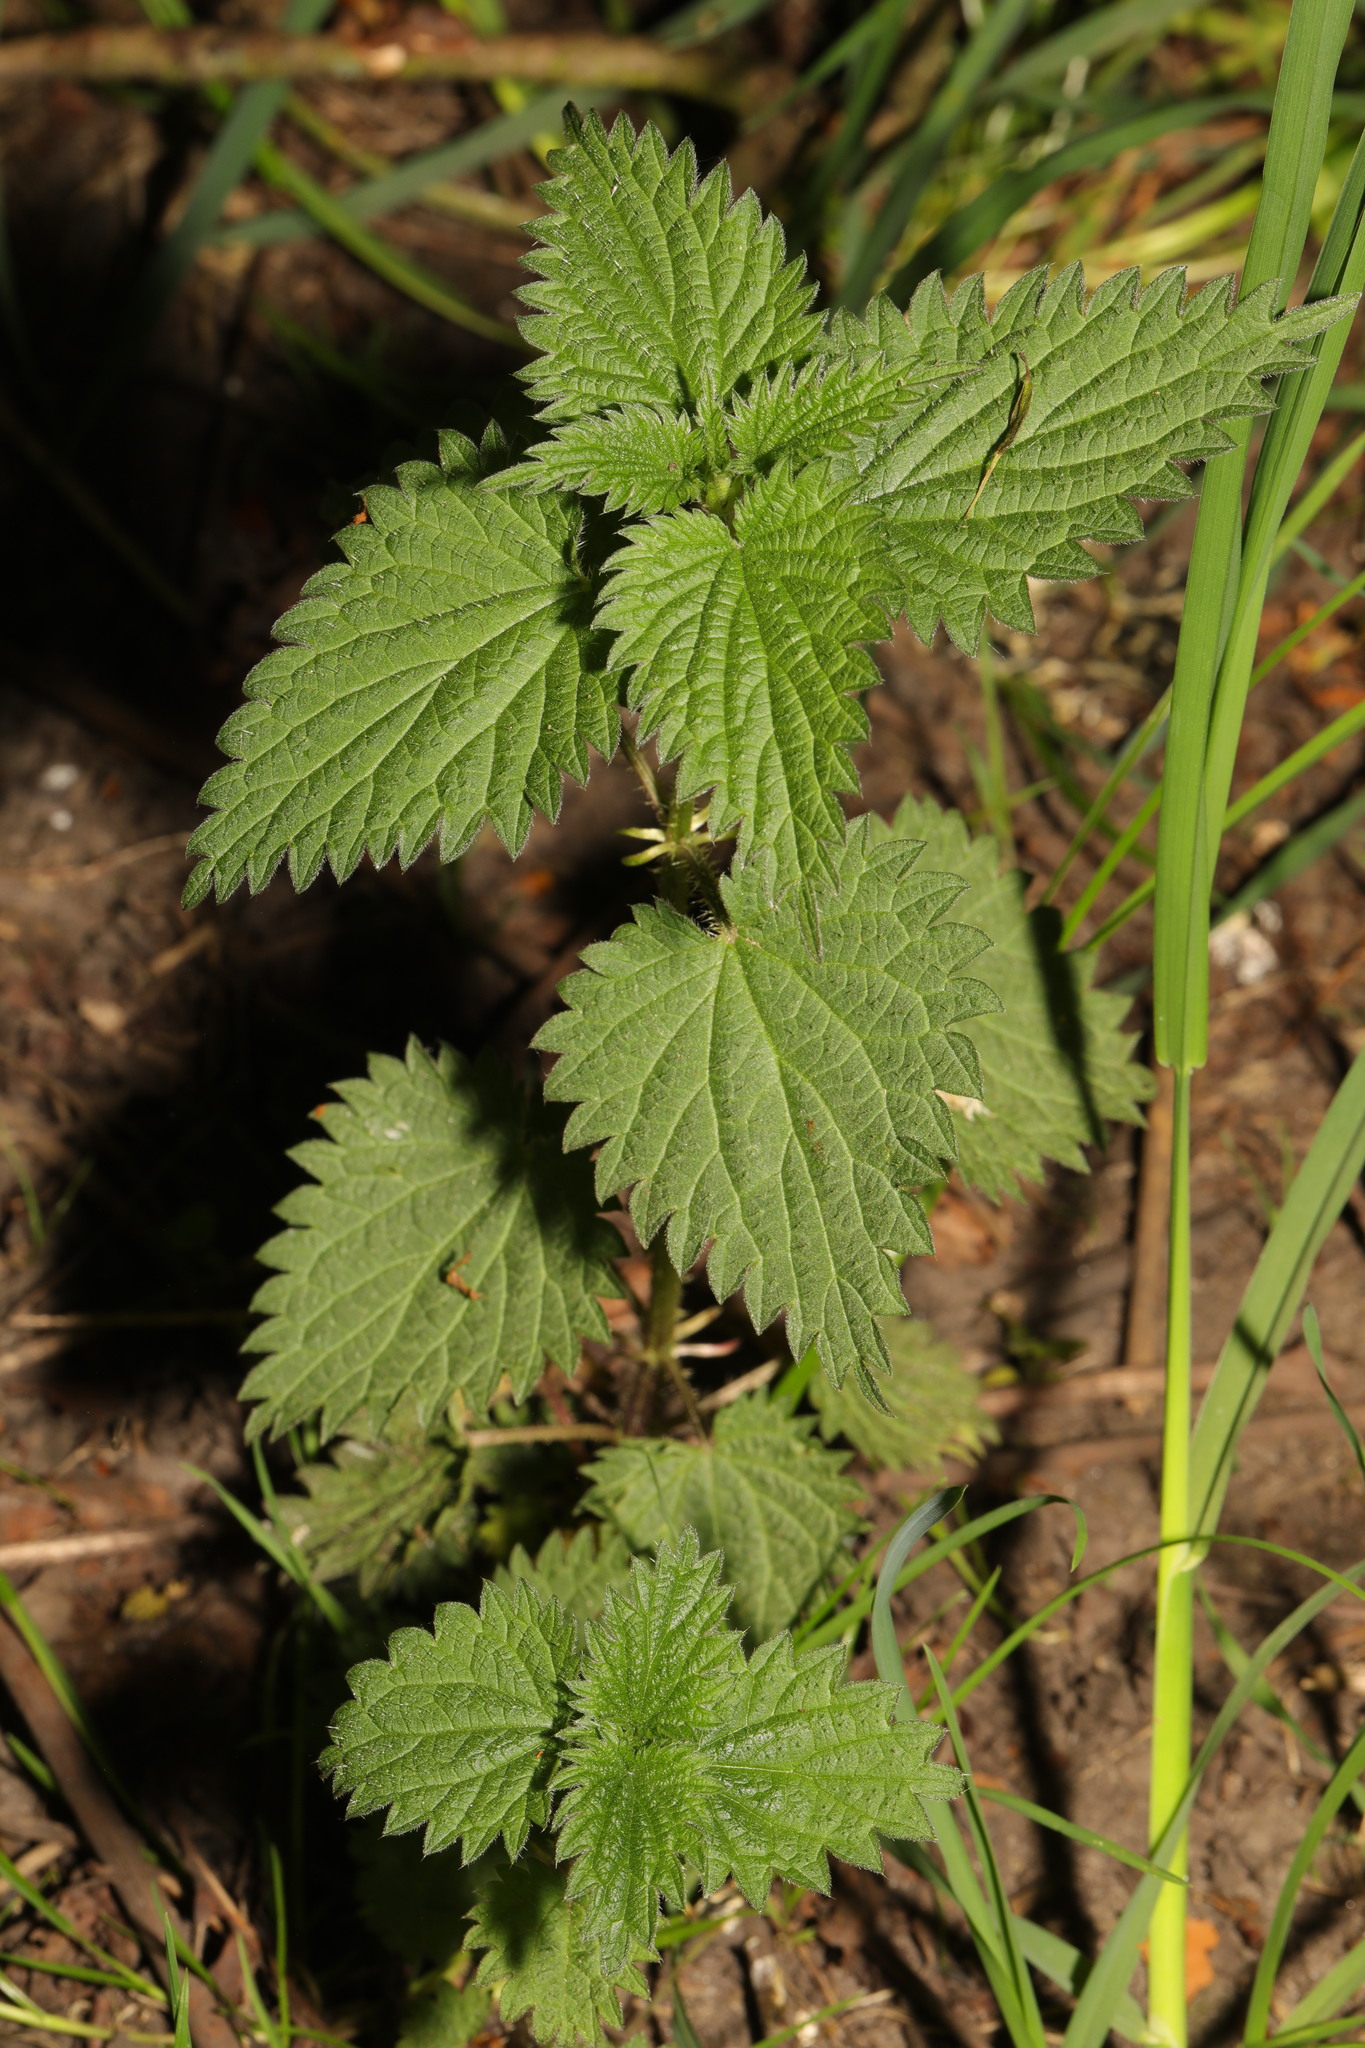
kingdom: Plantae
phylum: Tracheophyta
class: Magnoliopsida
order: Rosales
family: Urticaceae
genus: Urtica
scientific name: Urtica dioica
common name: Common nettle
